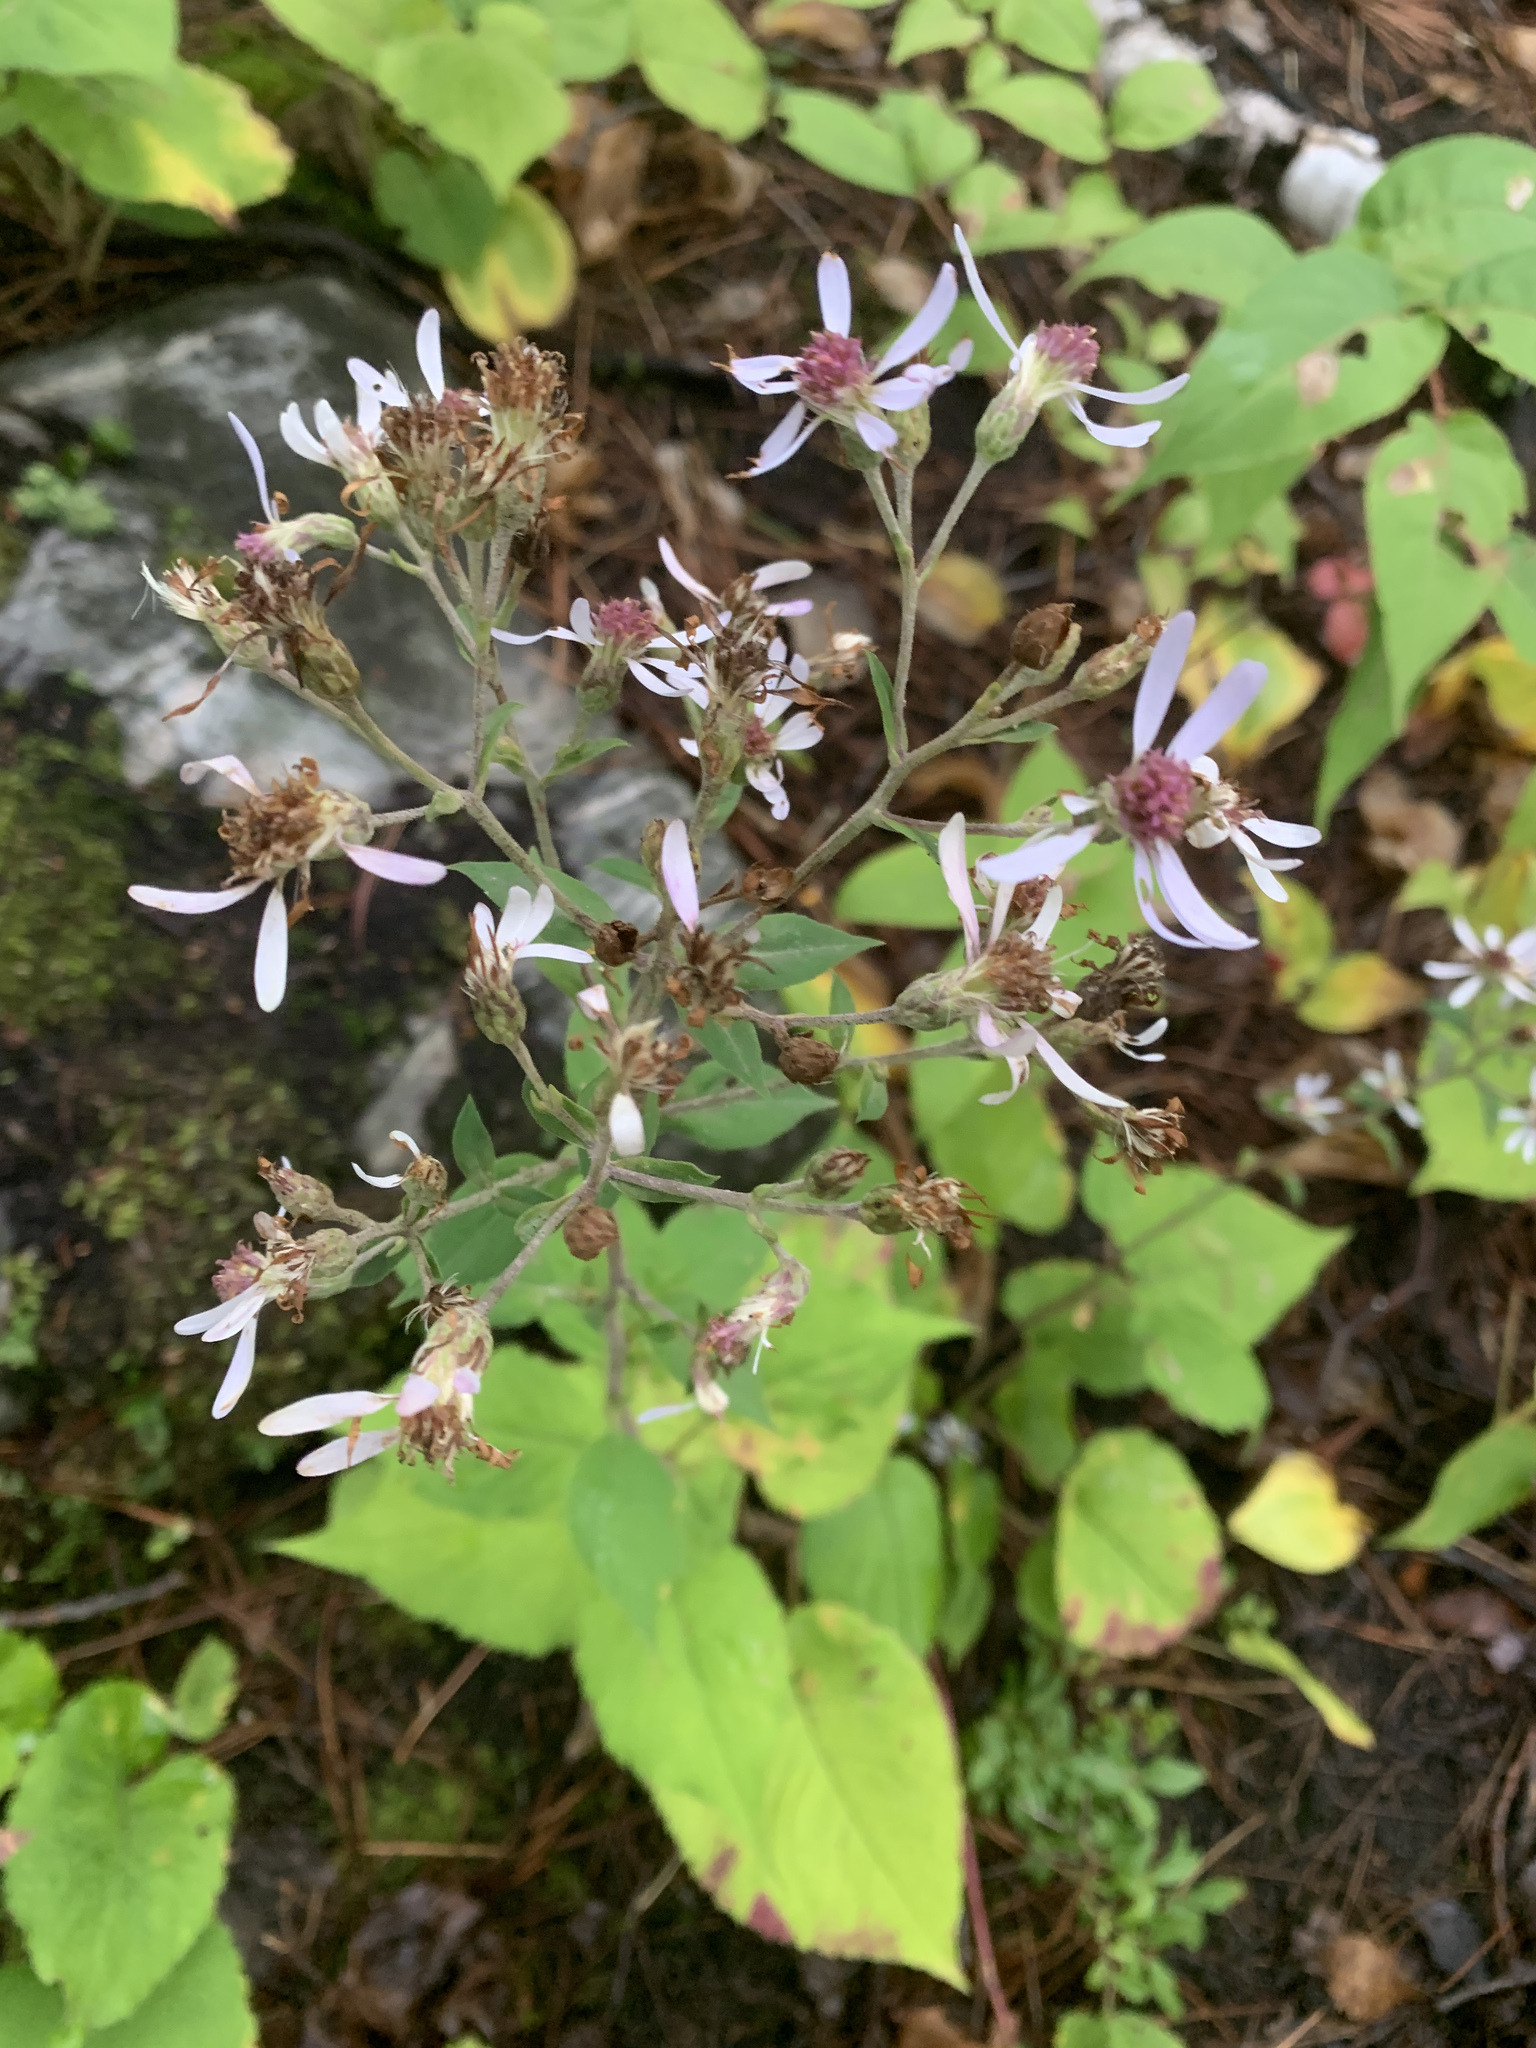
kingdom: Plantae
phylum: Tracheophyta
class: Magnoliopsida
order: Asterales
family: Asteraceae
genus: Eurybia
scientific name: Eurybia macrophylla
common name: Big-leaved aster
